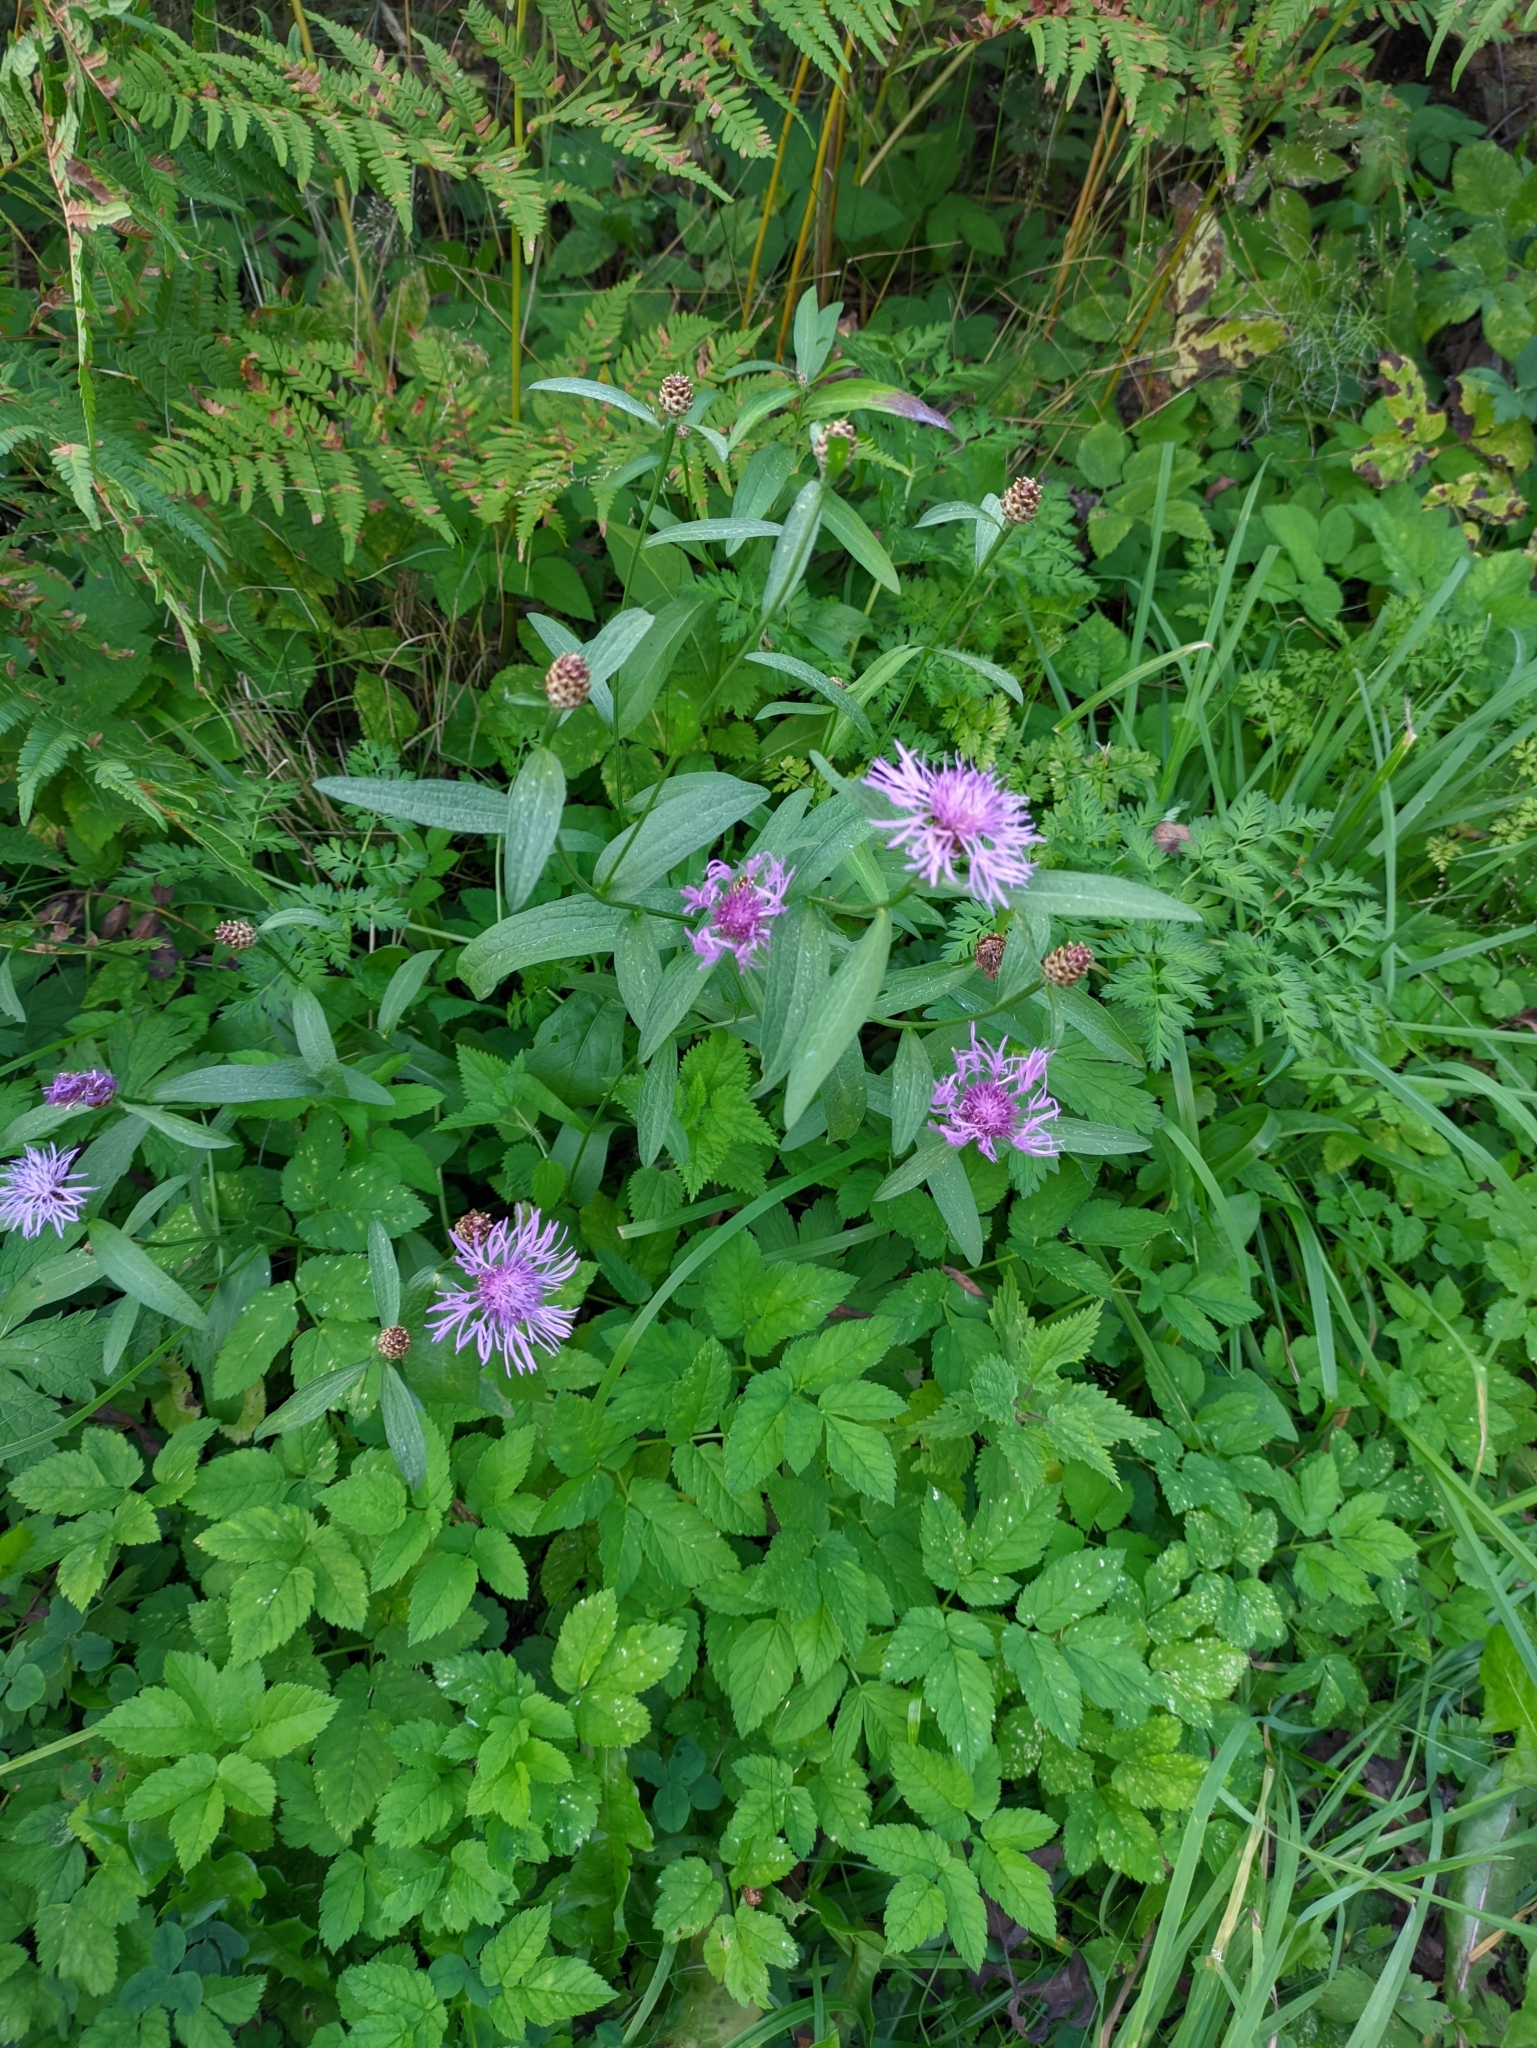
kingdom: Plantae
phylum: Tracheophyta
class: Magnoliopsida
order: Asterales
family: Asteraceae
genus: Centaurea
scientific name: Centaurea jacea
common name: Brown knapweed
